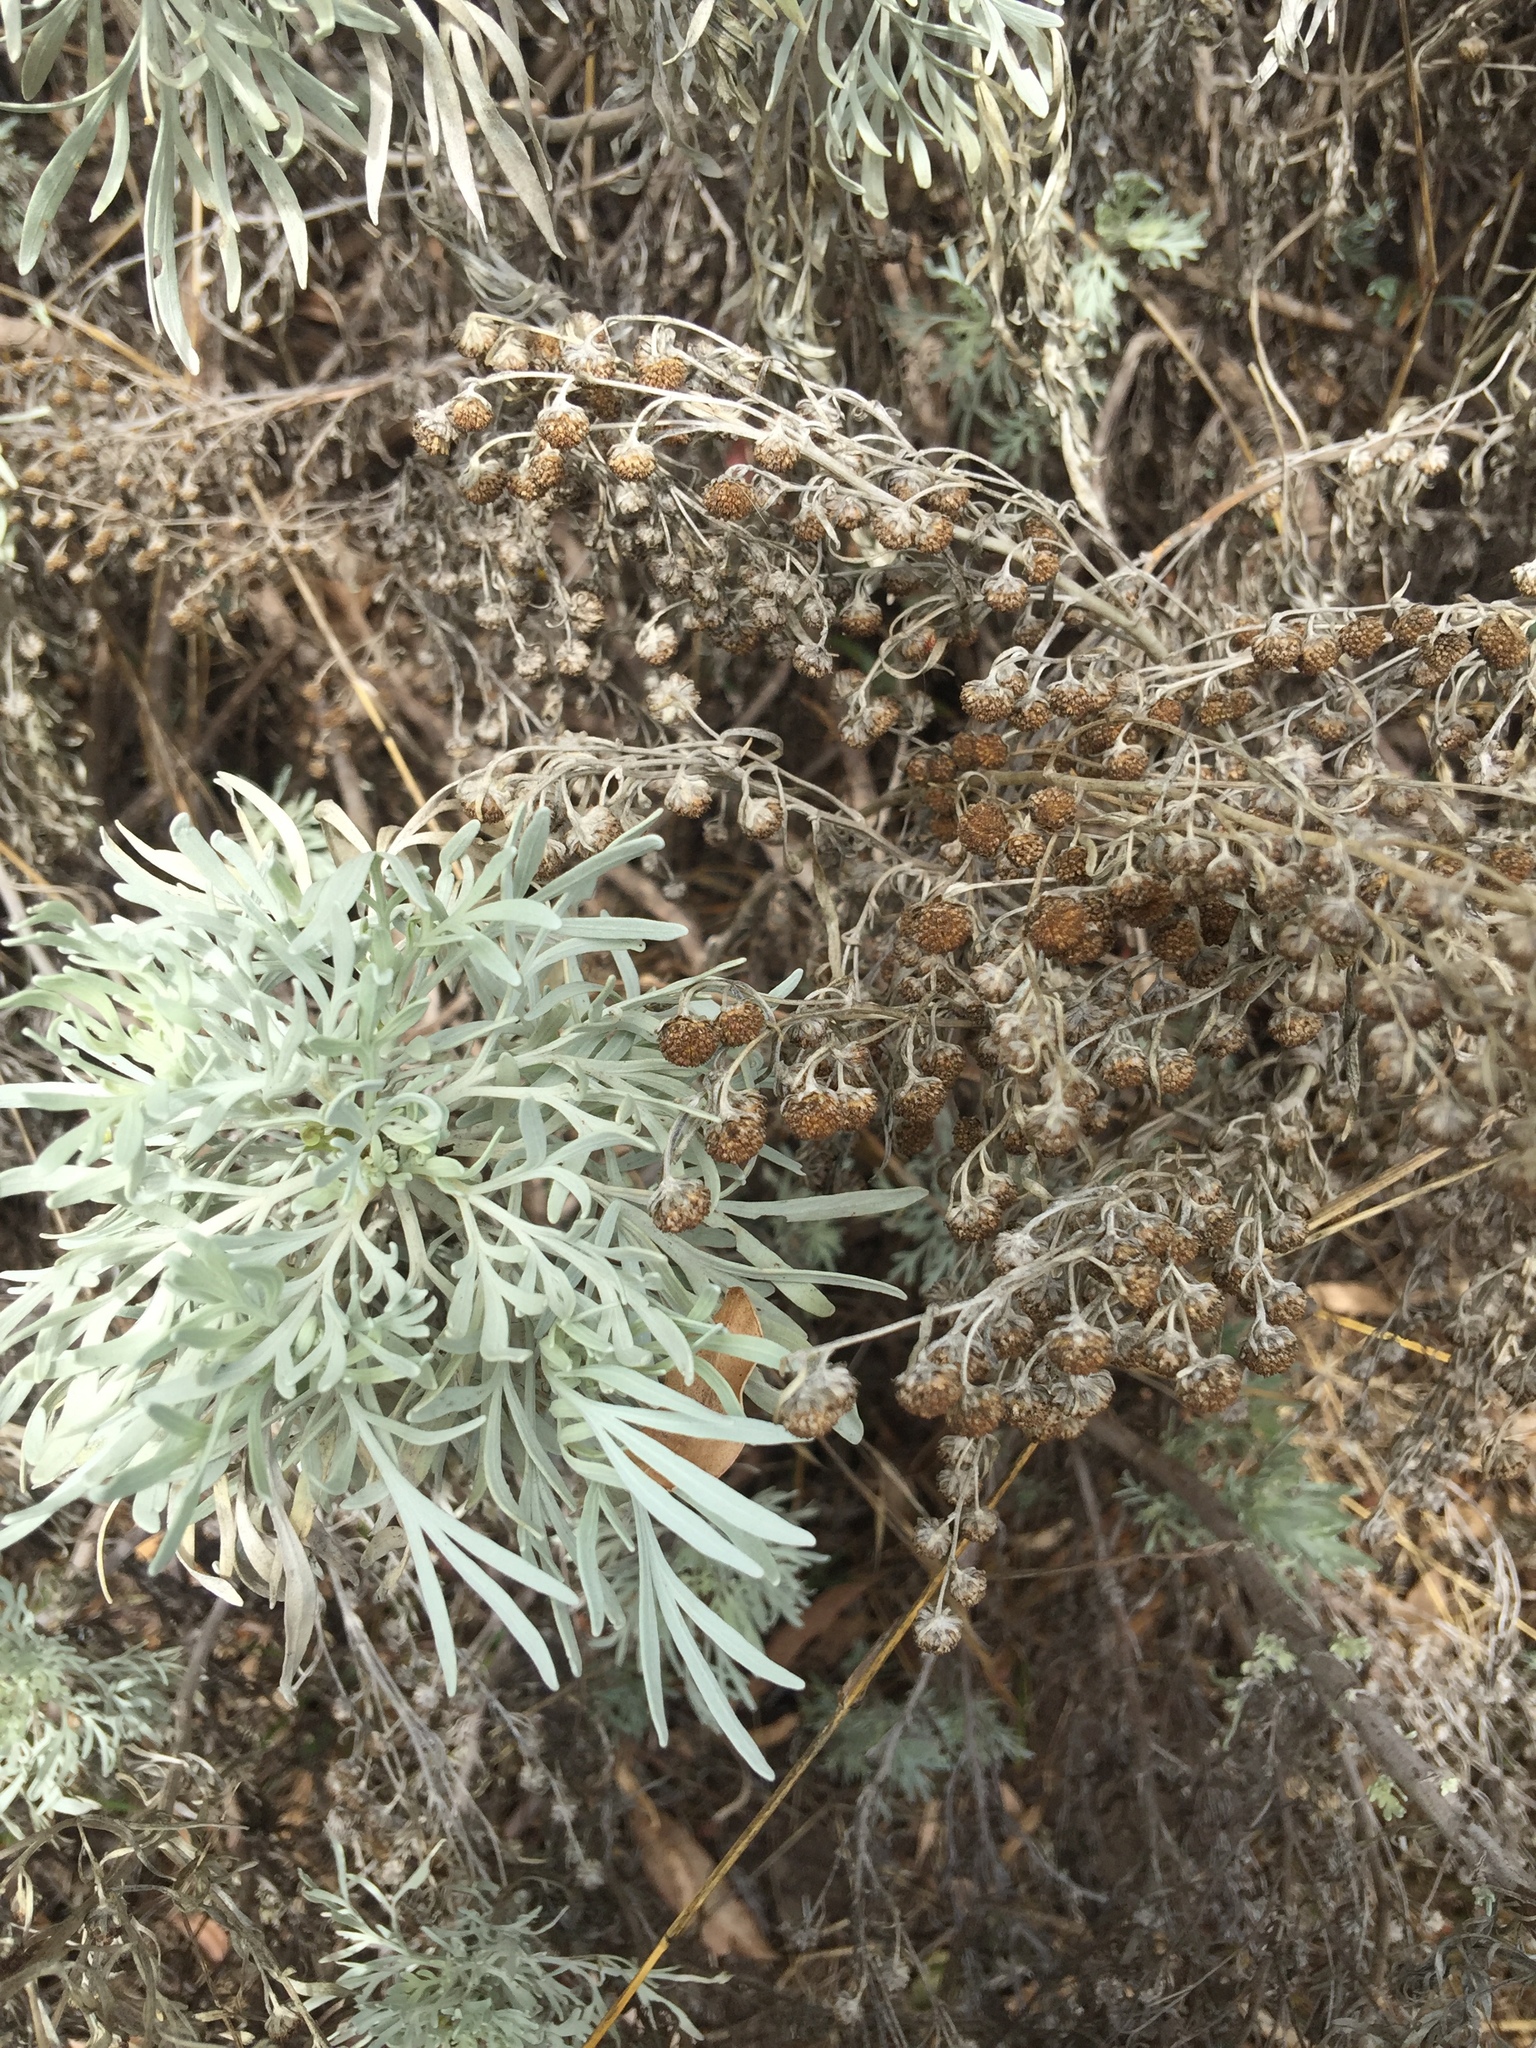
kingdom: Plantae
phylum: Tracheophyta
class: Magnoliopsida
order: Asterales
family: Asteraceae
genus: Artemisia
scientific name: Artemisia pycnocephala
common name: Coastal sagewort
